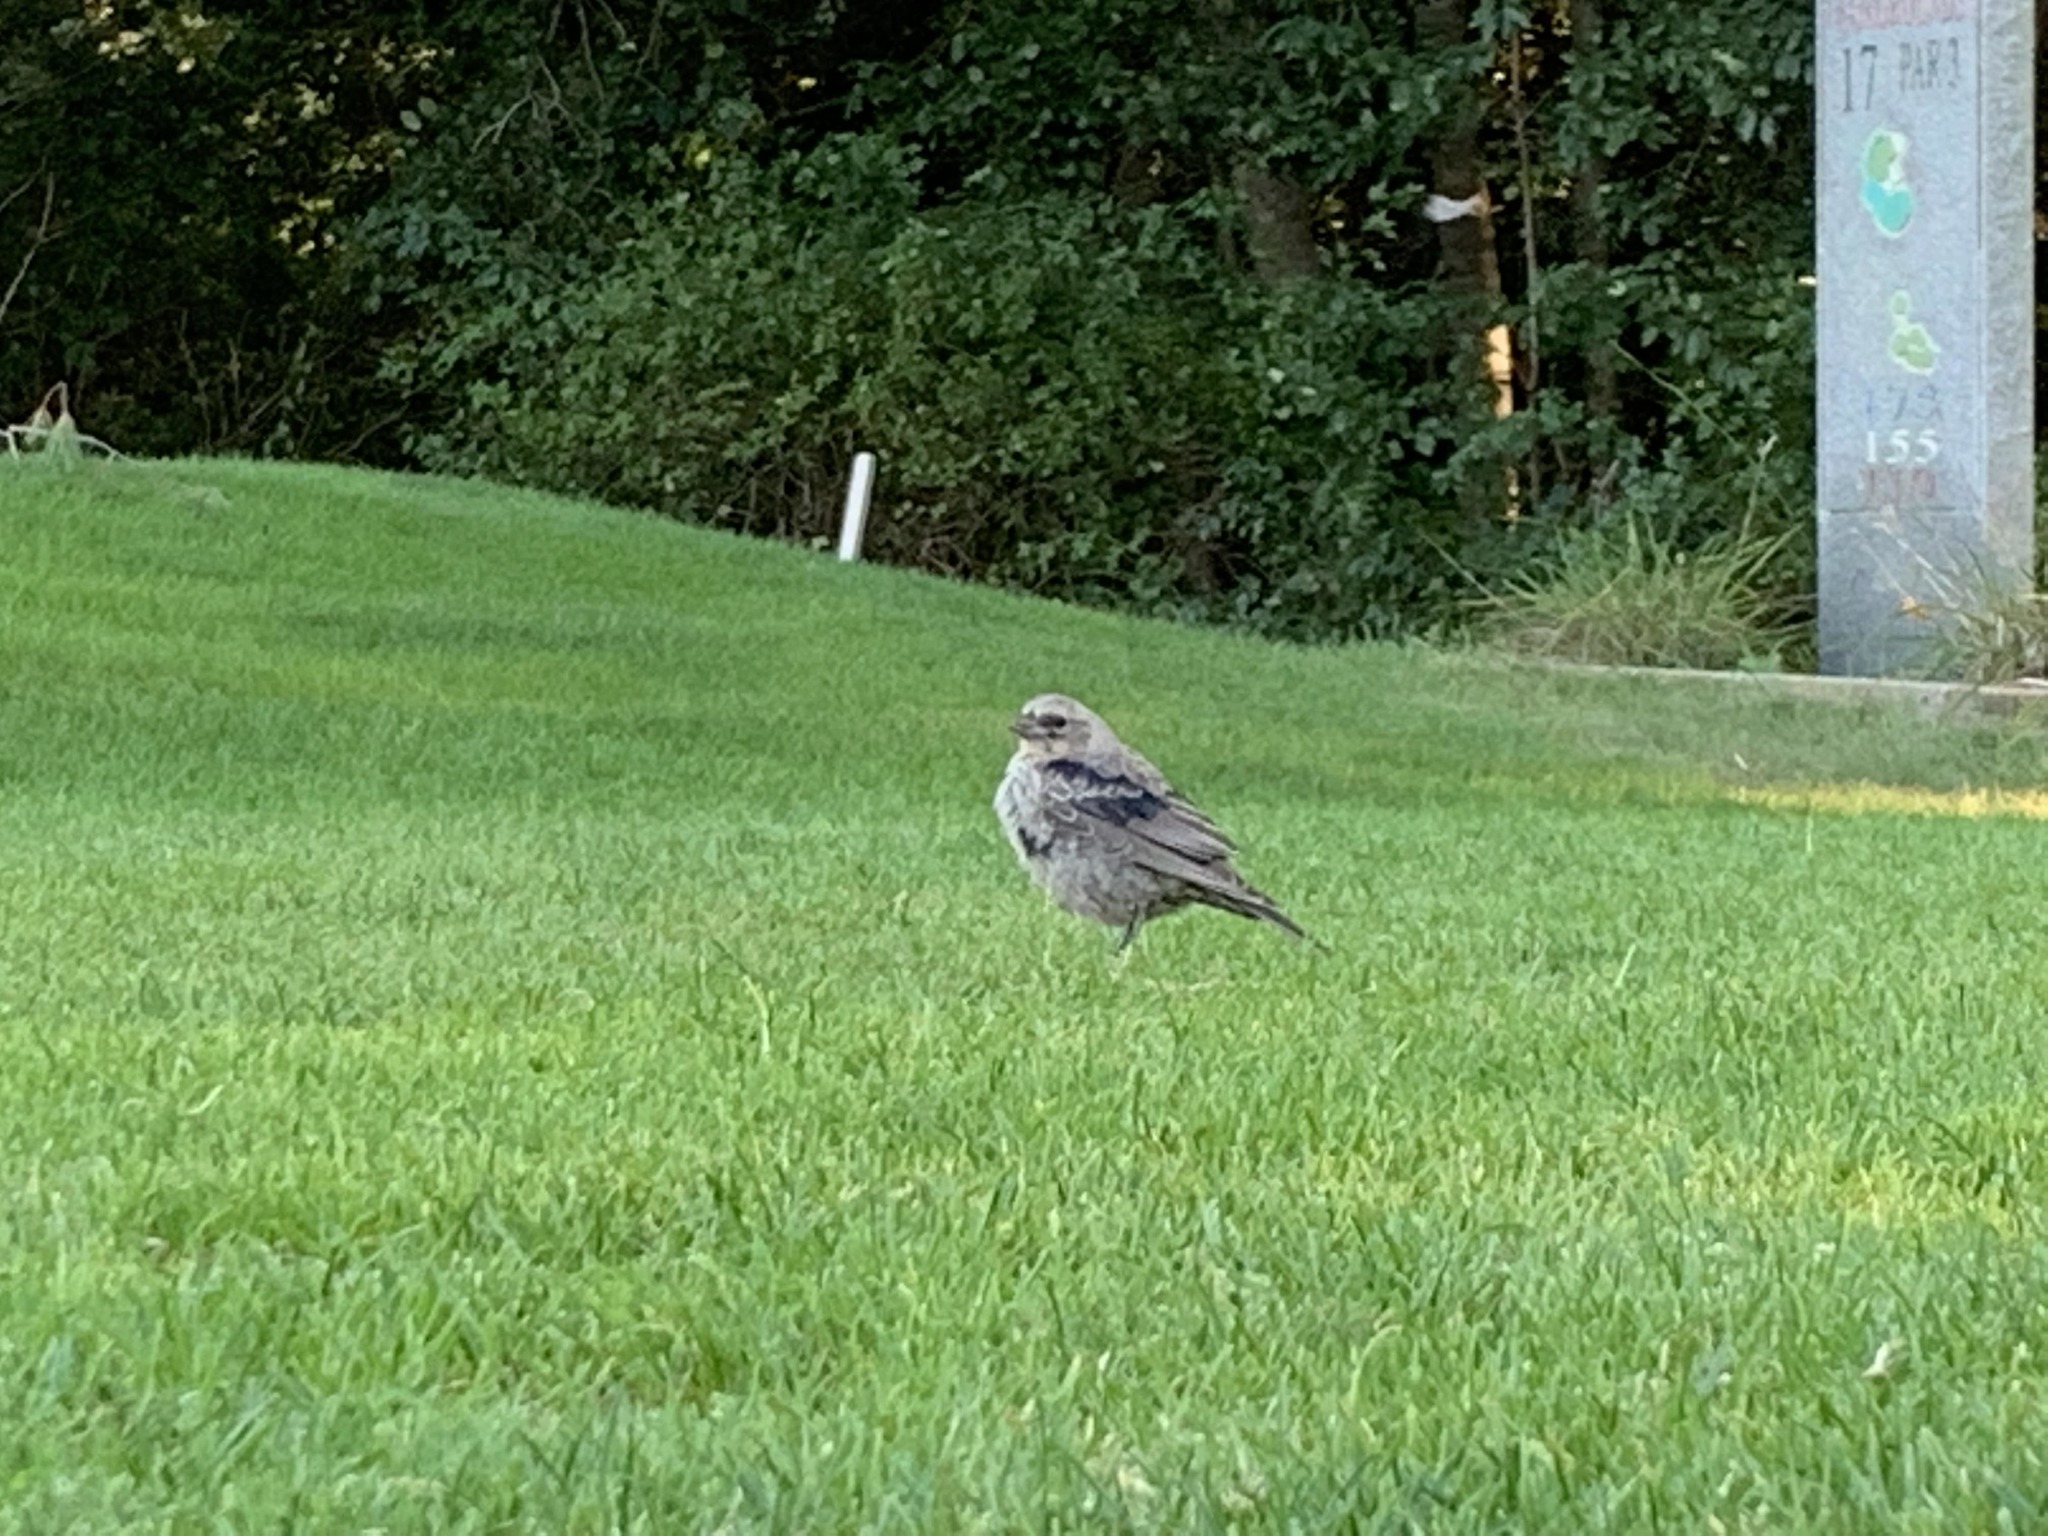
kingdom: Animalia
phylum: Chordata
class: Aves
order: Passeriformes
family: Icteridae
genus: Molothrus
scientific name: Molothrus ater
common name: Brown-headed cowbird
